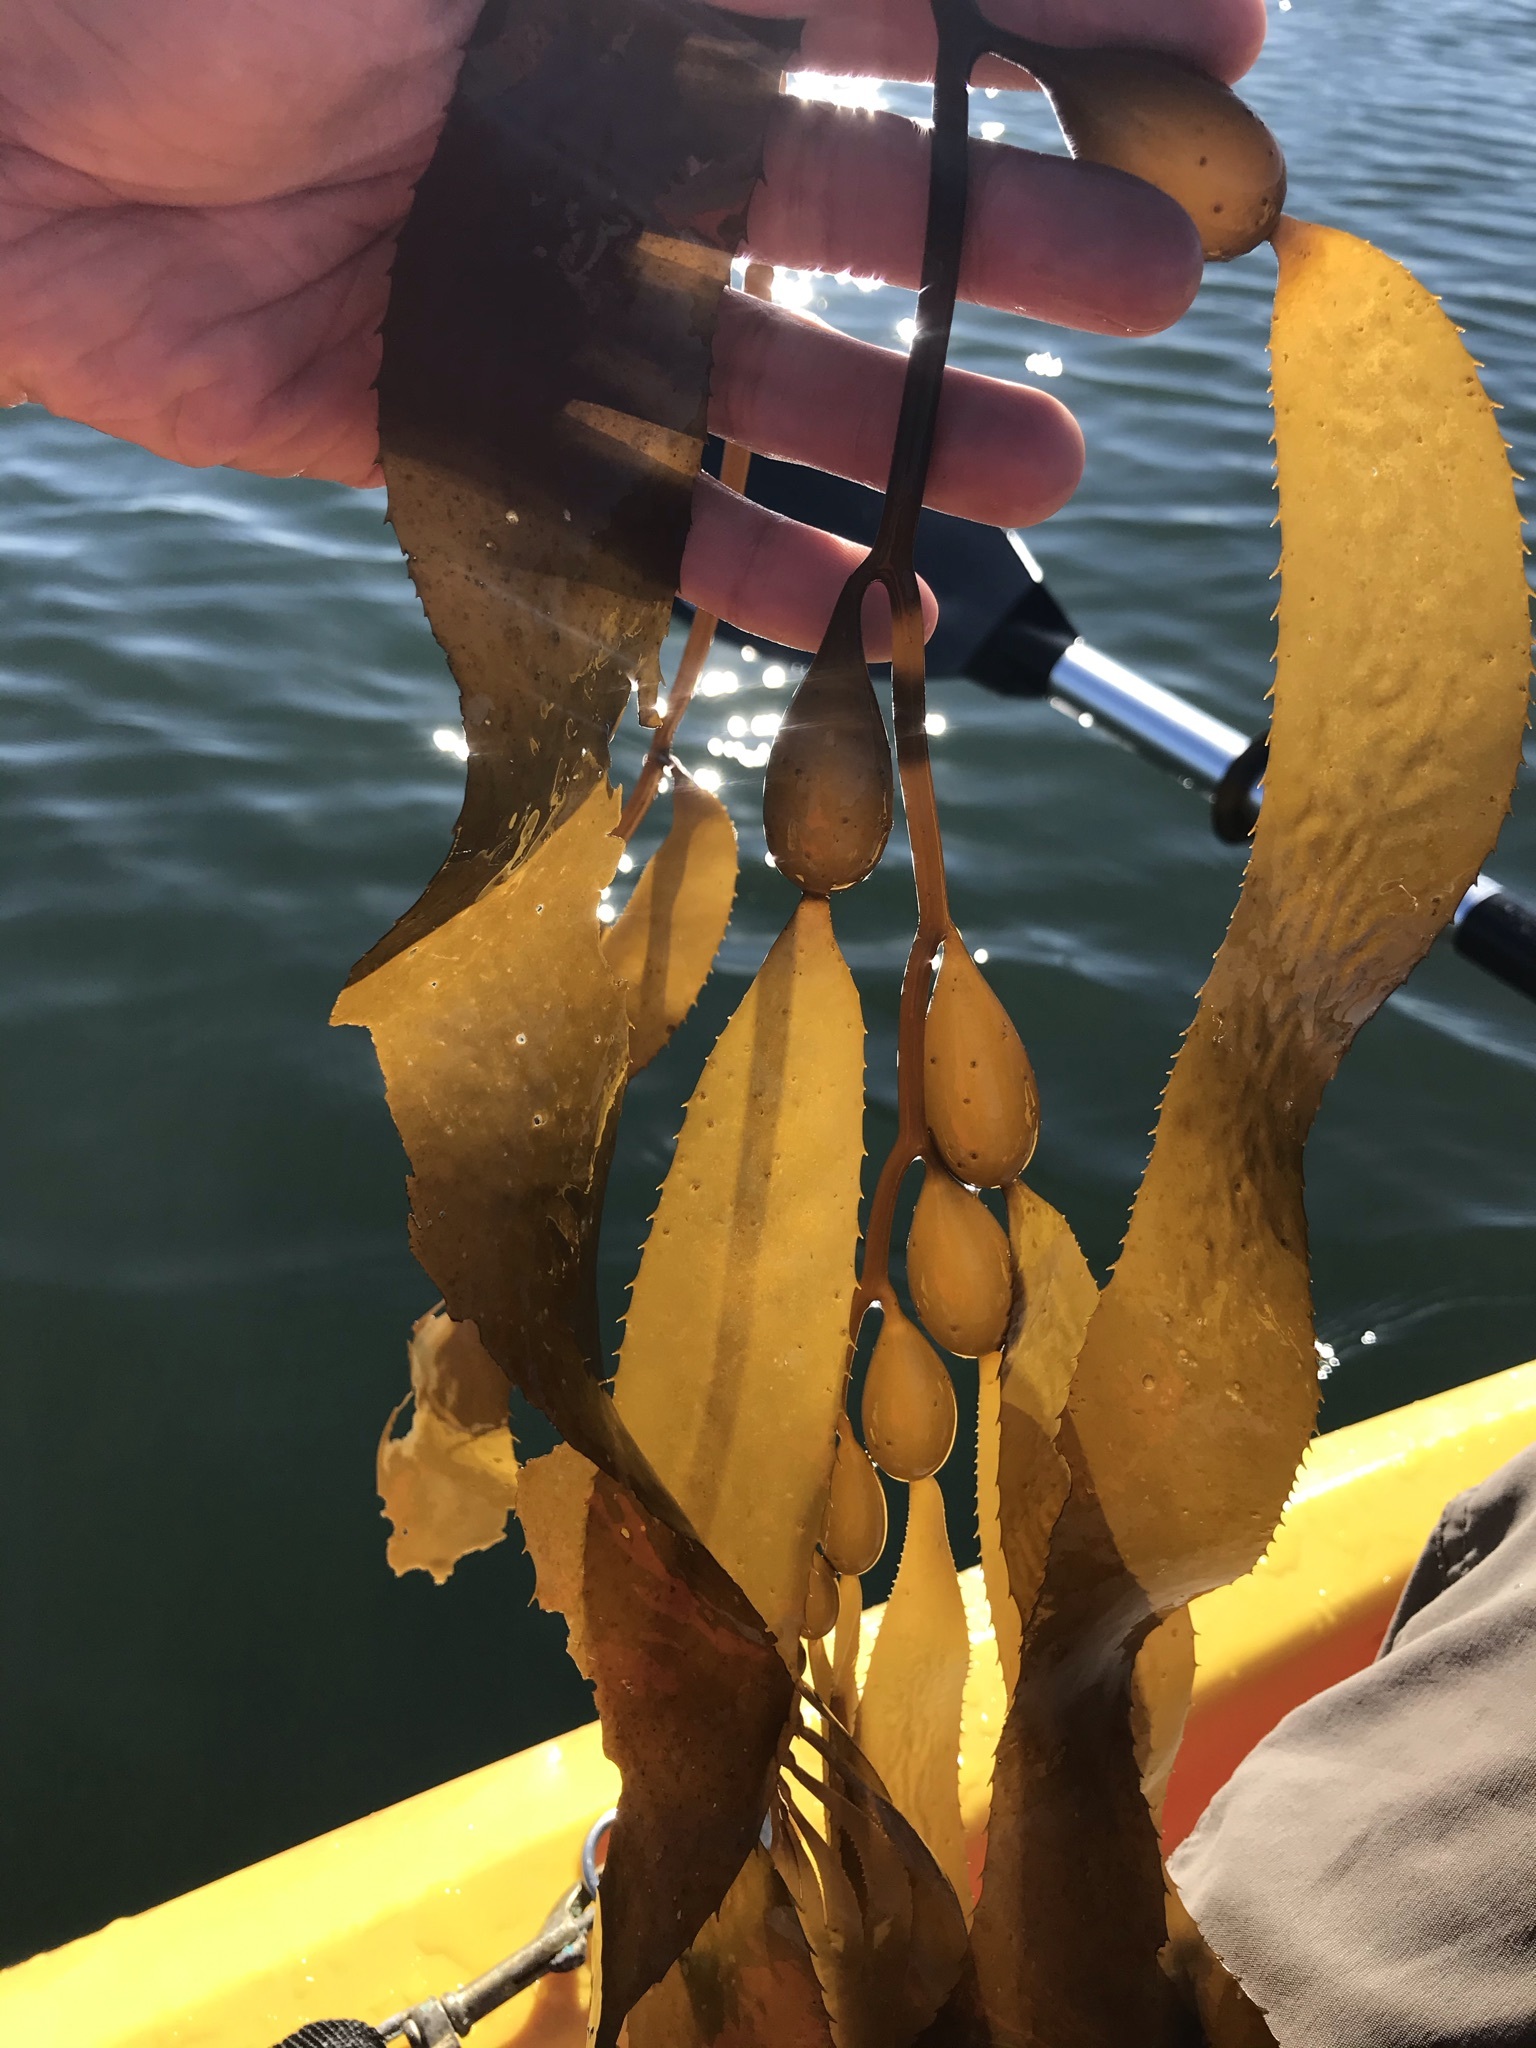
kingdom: Chromista
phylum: Ochrophyta
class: Phaeophyceae
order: Laminariales
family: Laminariaceae
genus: Macrocystis
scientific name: Macrocystis pyrifera
